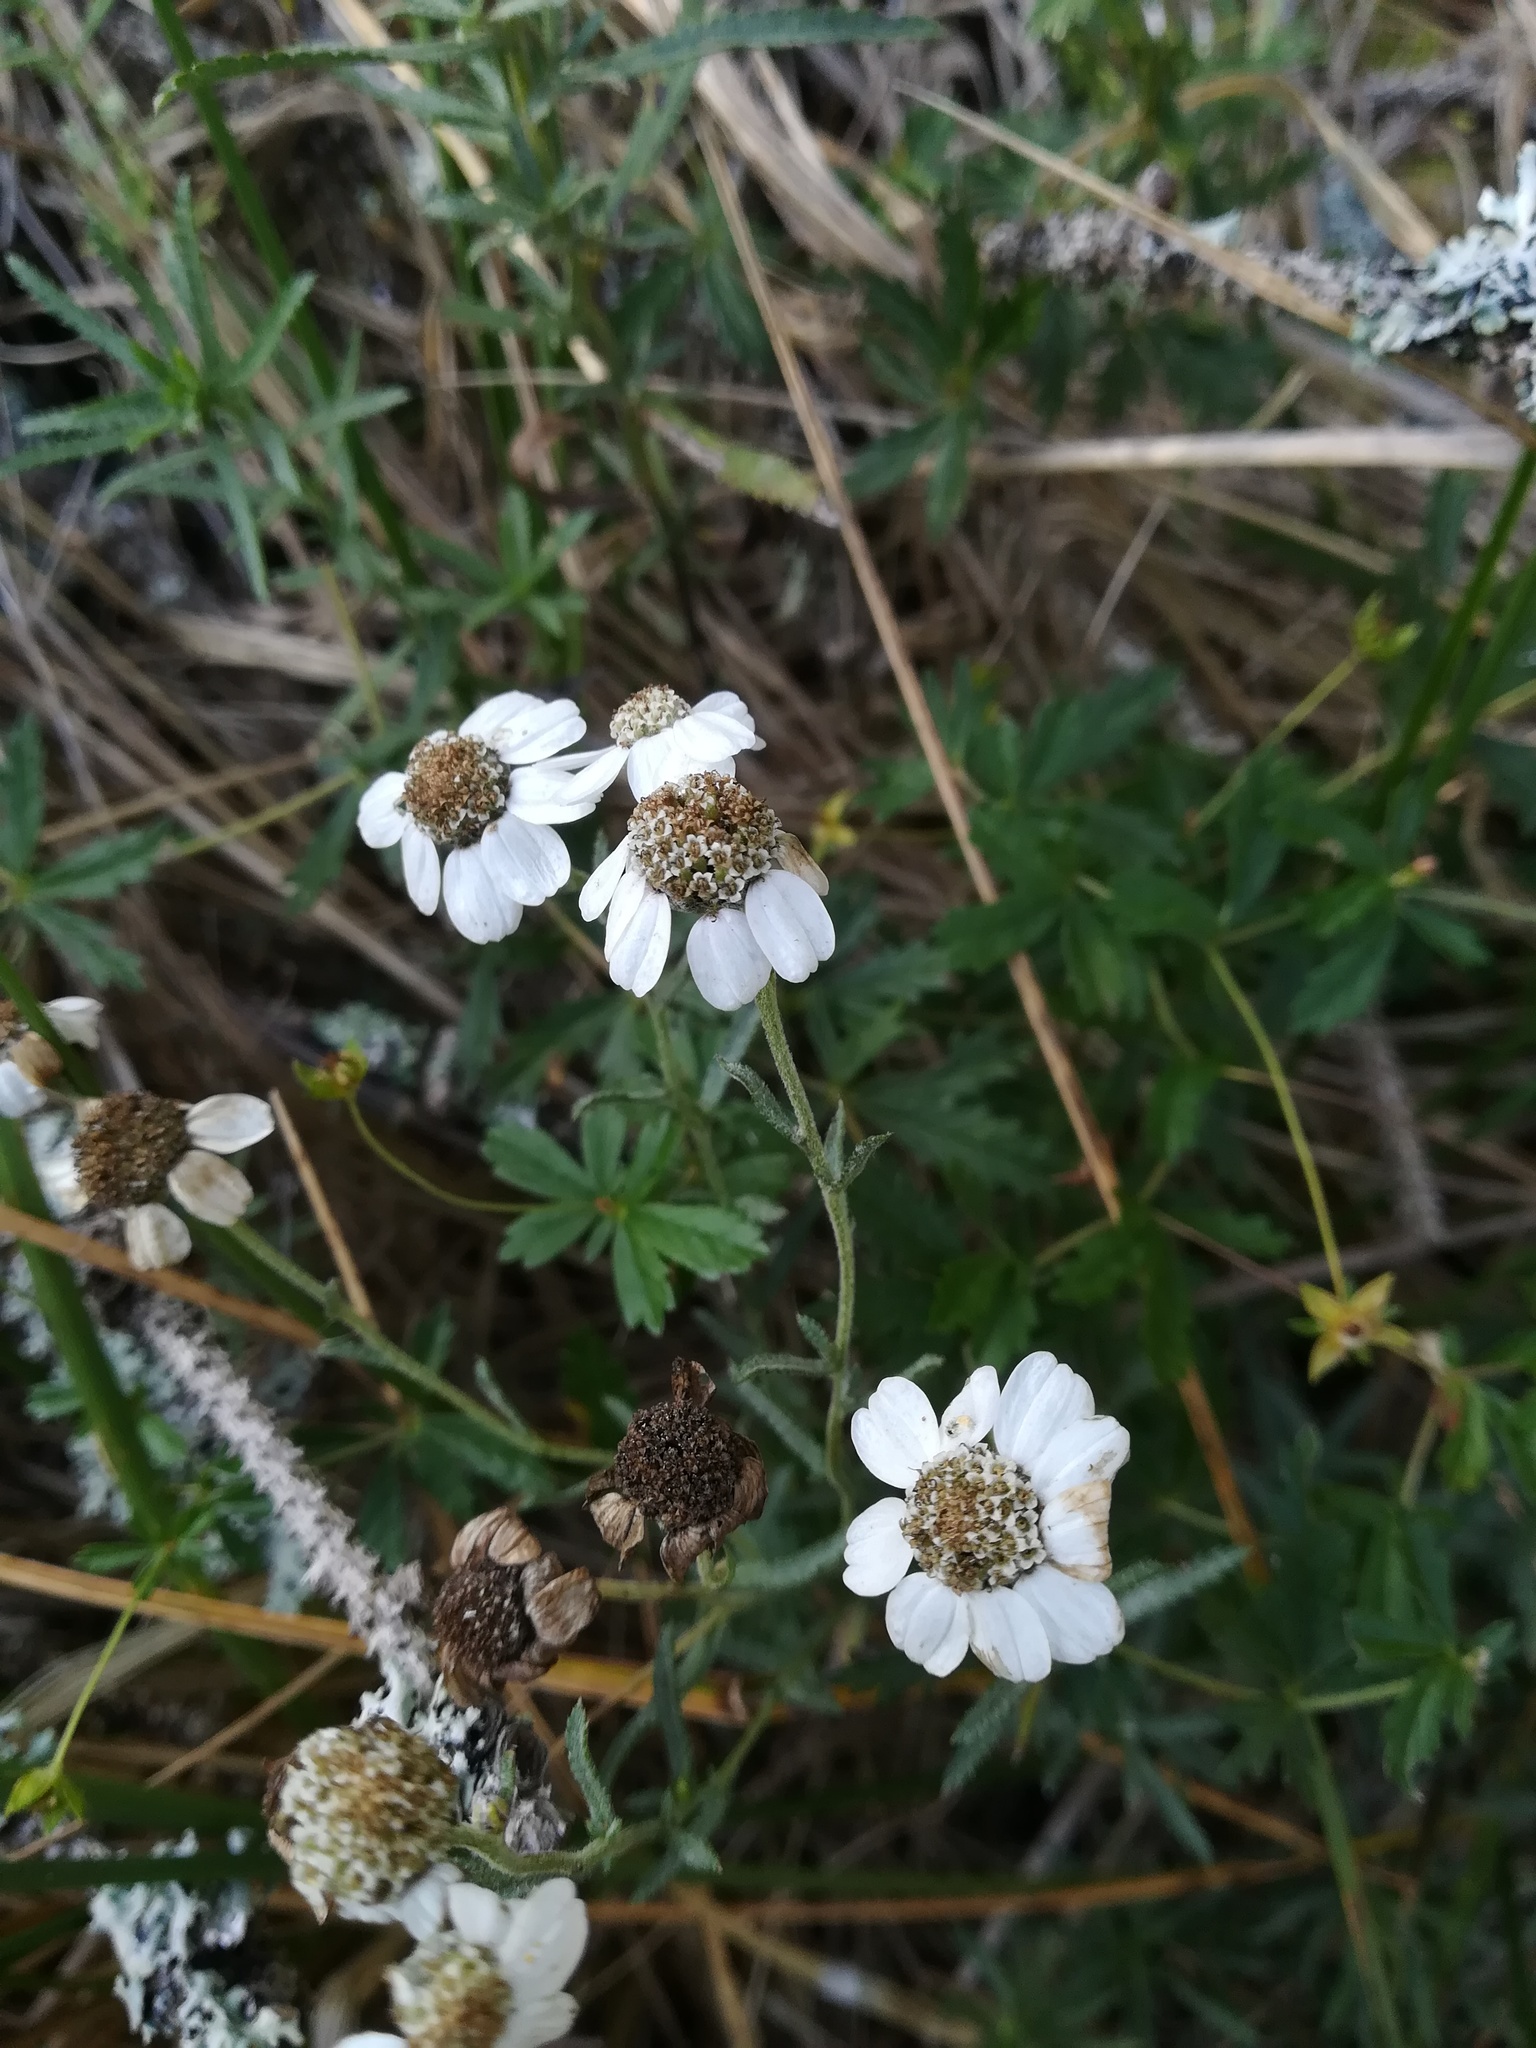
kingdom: Plantae
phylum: Tracheophyta
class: Magnoliopsida
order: Asterales
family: Asteraceae
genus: Achillea
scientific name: Achillea ptarmica
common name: Sneezeweed
